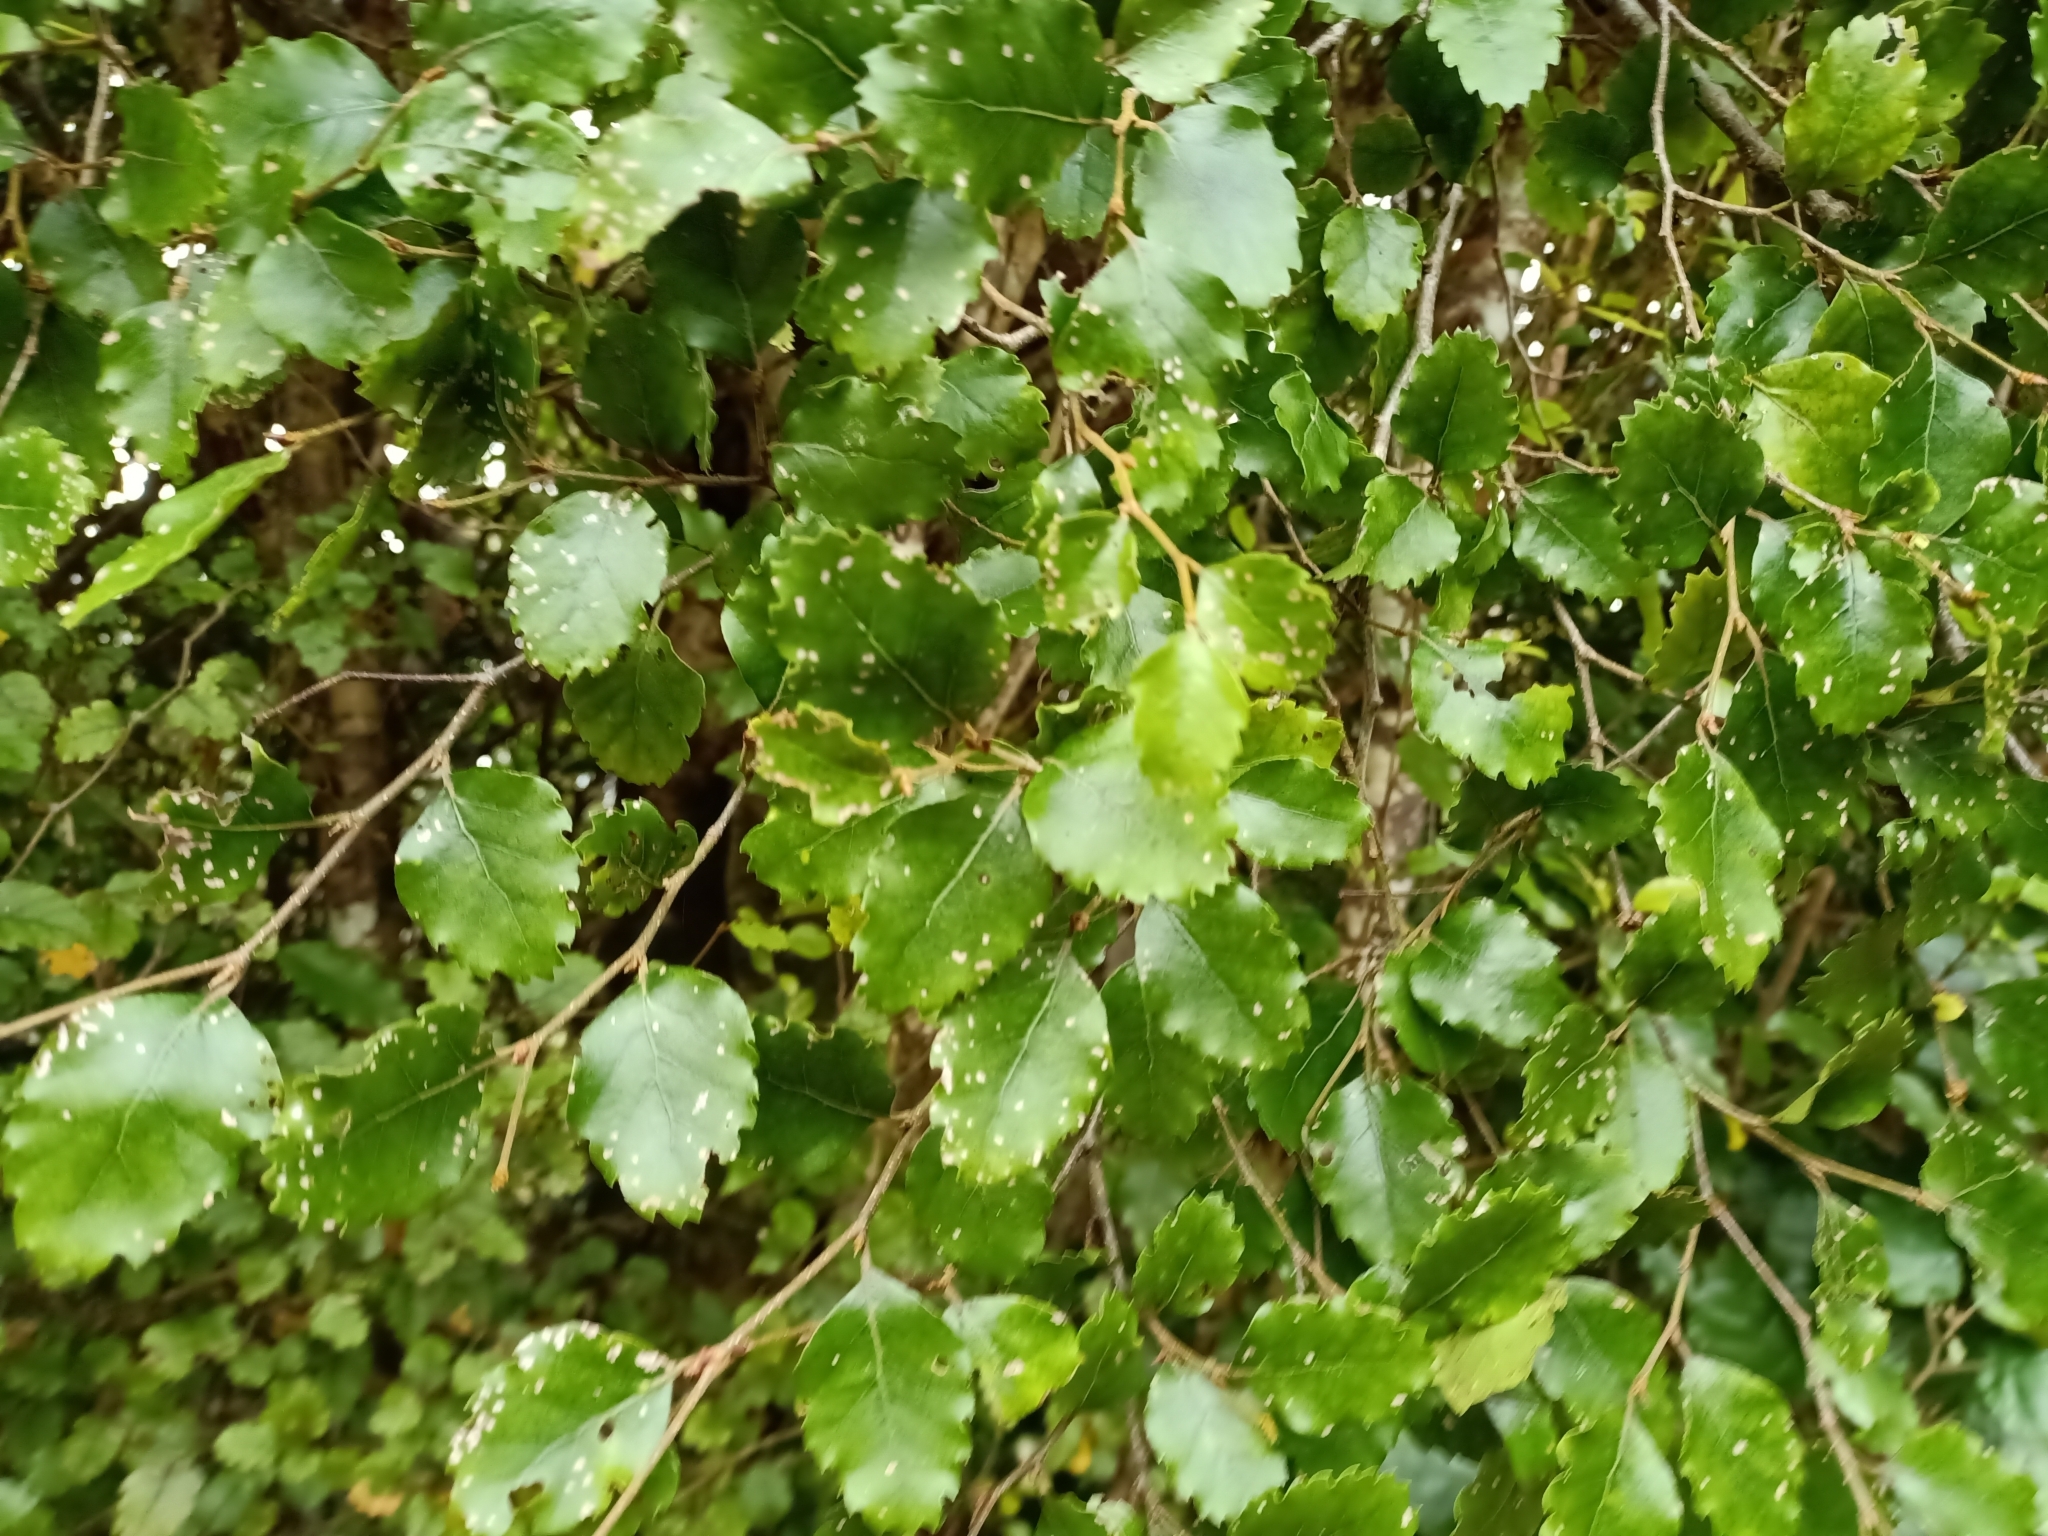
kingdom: Plantae
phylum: Tracheophyta
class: Magnoliopsida
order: Fagales
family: Nothofagaceae
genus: Nothofagus
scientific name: Nothofagus fusca
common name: Red beech
